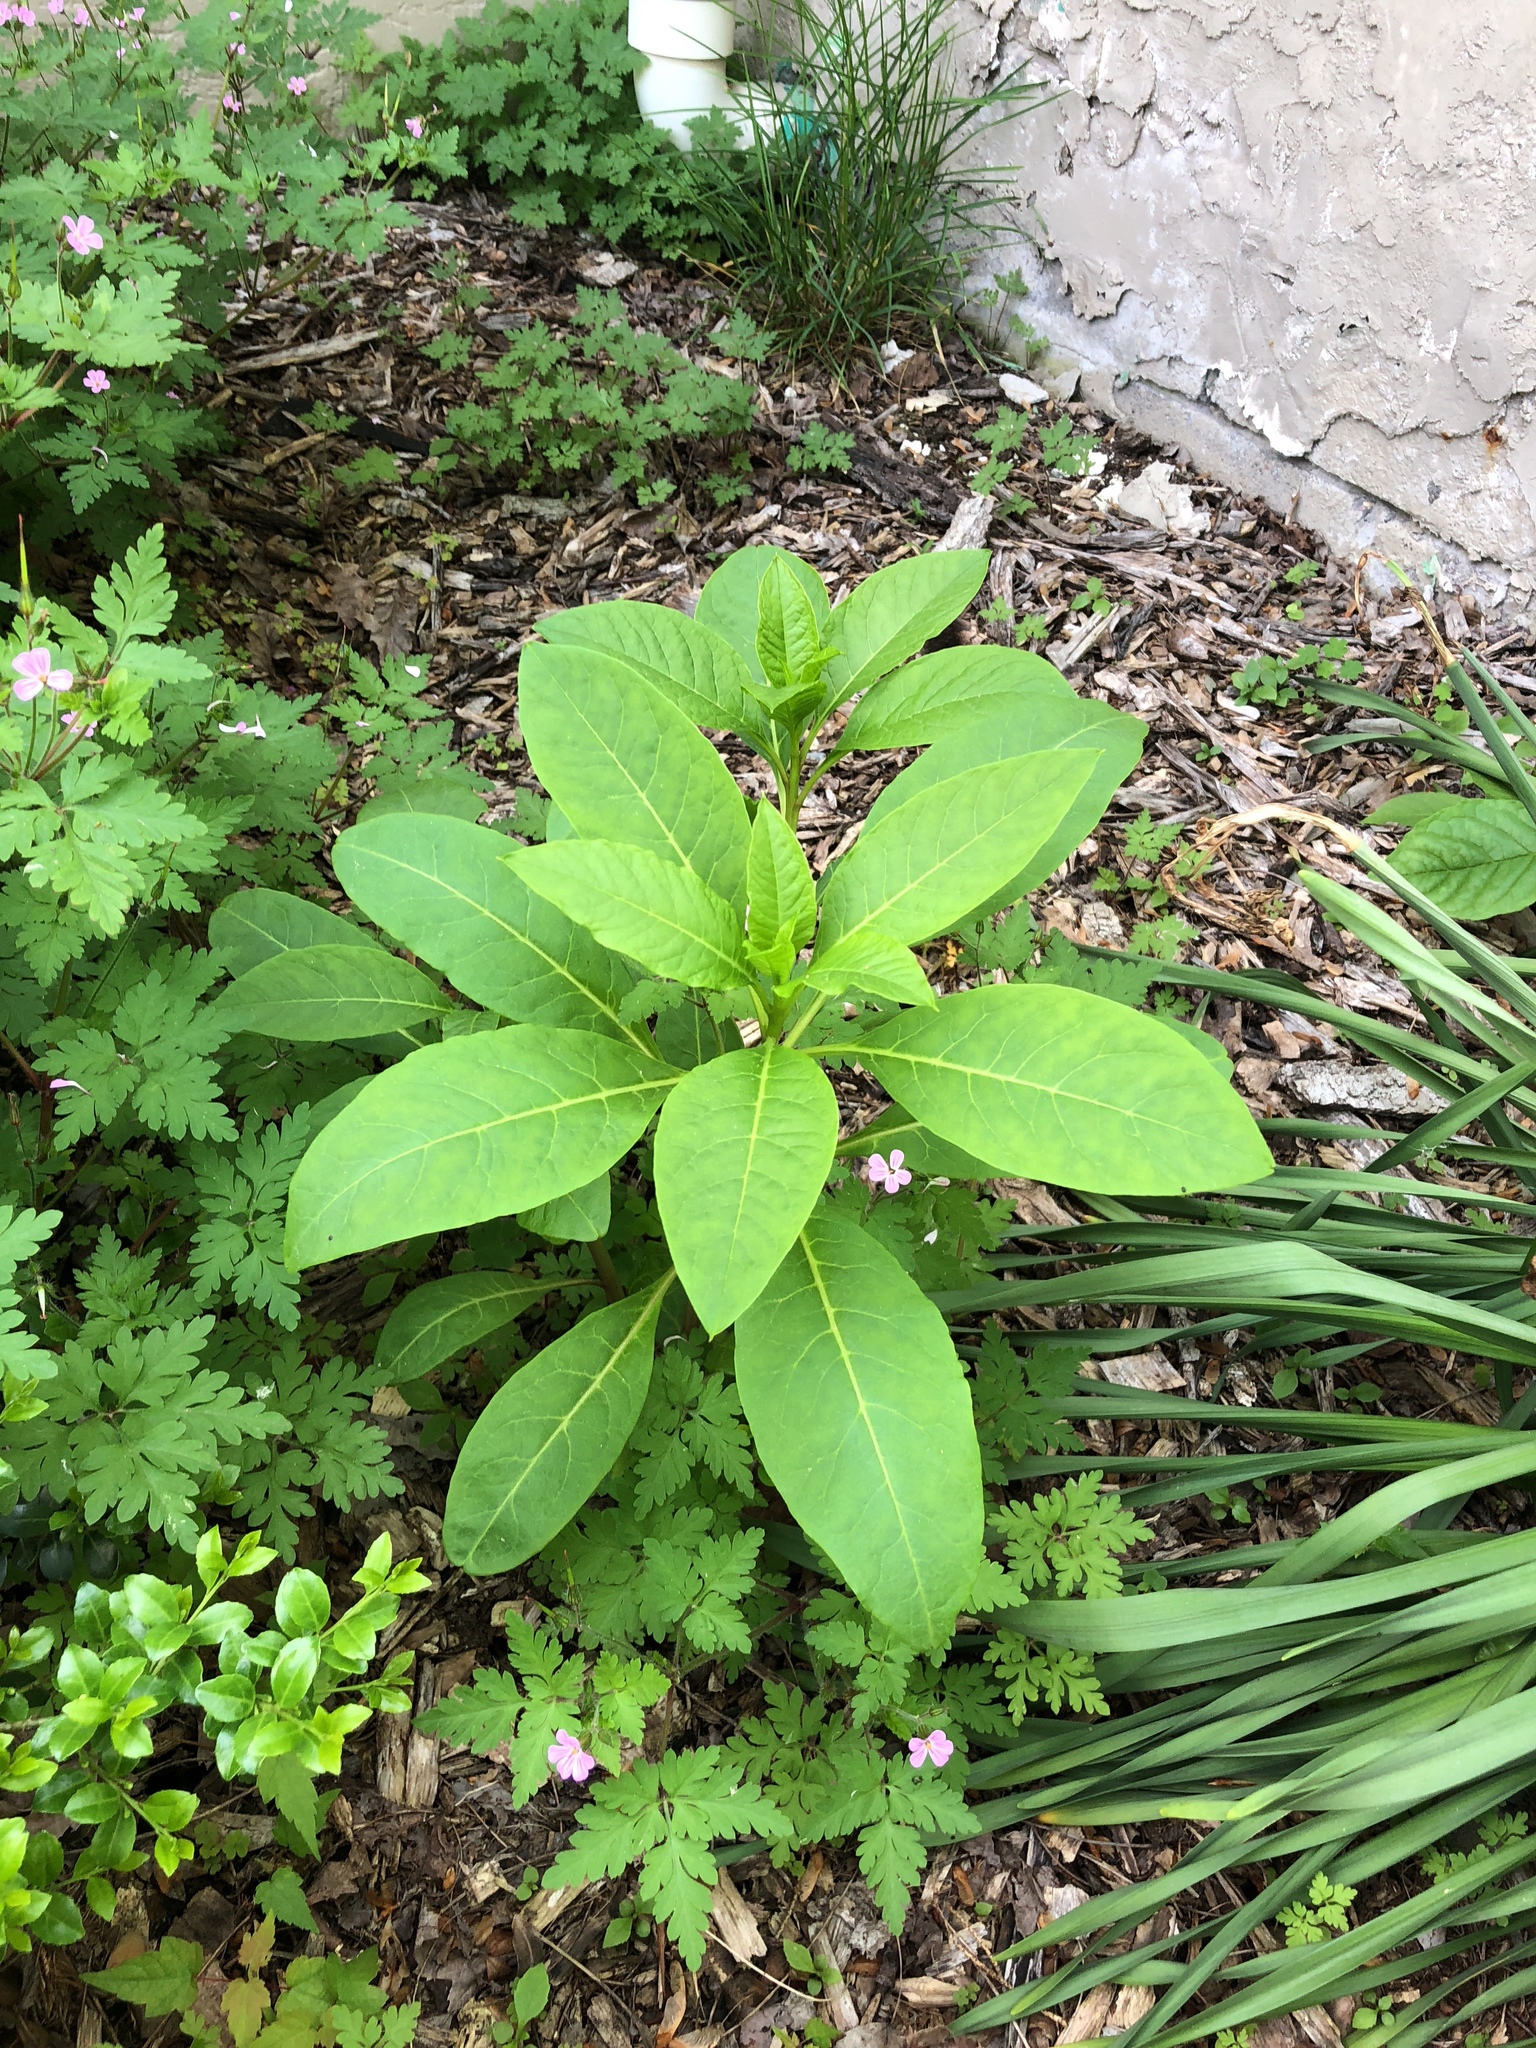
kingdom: Plantae
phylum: Tracheophyta
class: Magnoliopsida
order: Caryophyllales
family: Phytolaccaceae
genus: Phytolacca
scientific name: Phytolacca americana
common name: American pokeweed
